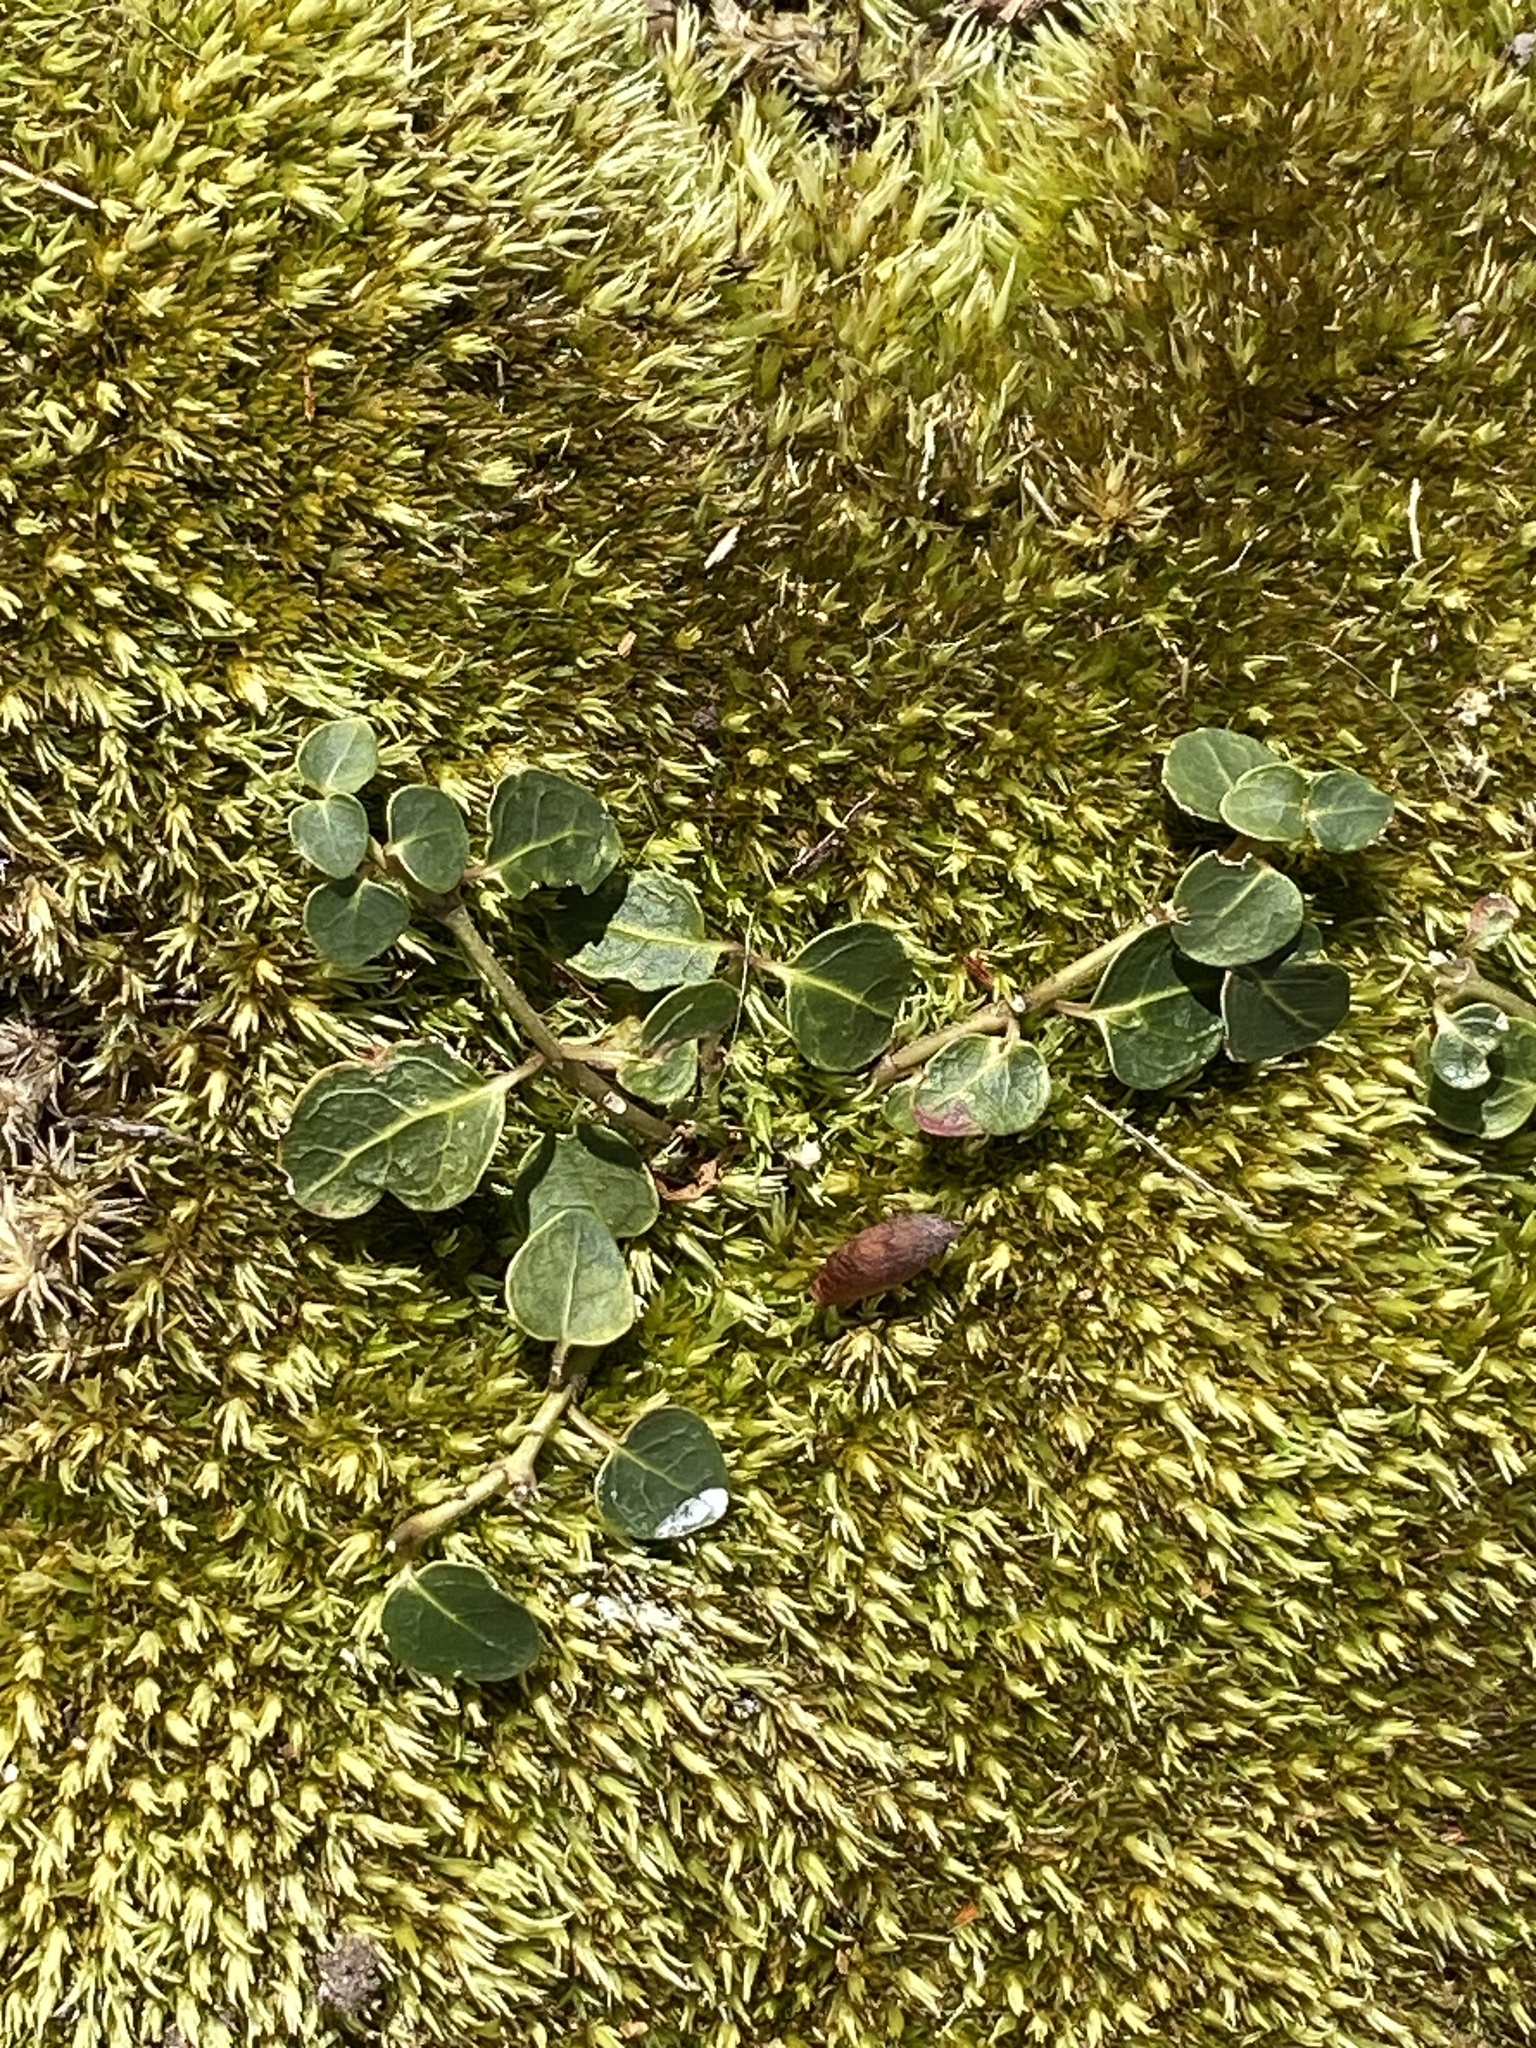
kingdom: Plantae
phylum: Tracheophyta
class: Magnoliopsida
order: Gentianales
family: Rubiaceae
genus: Mitchella
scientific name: Mitchella repens
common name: Partridge-berry
